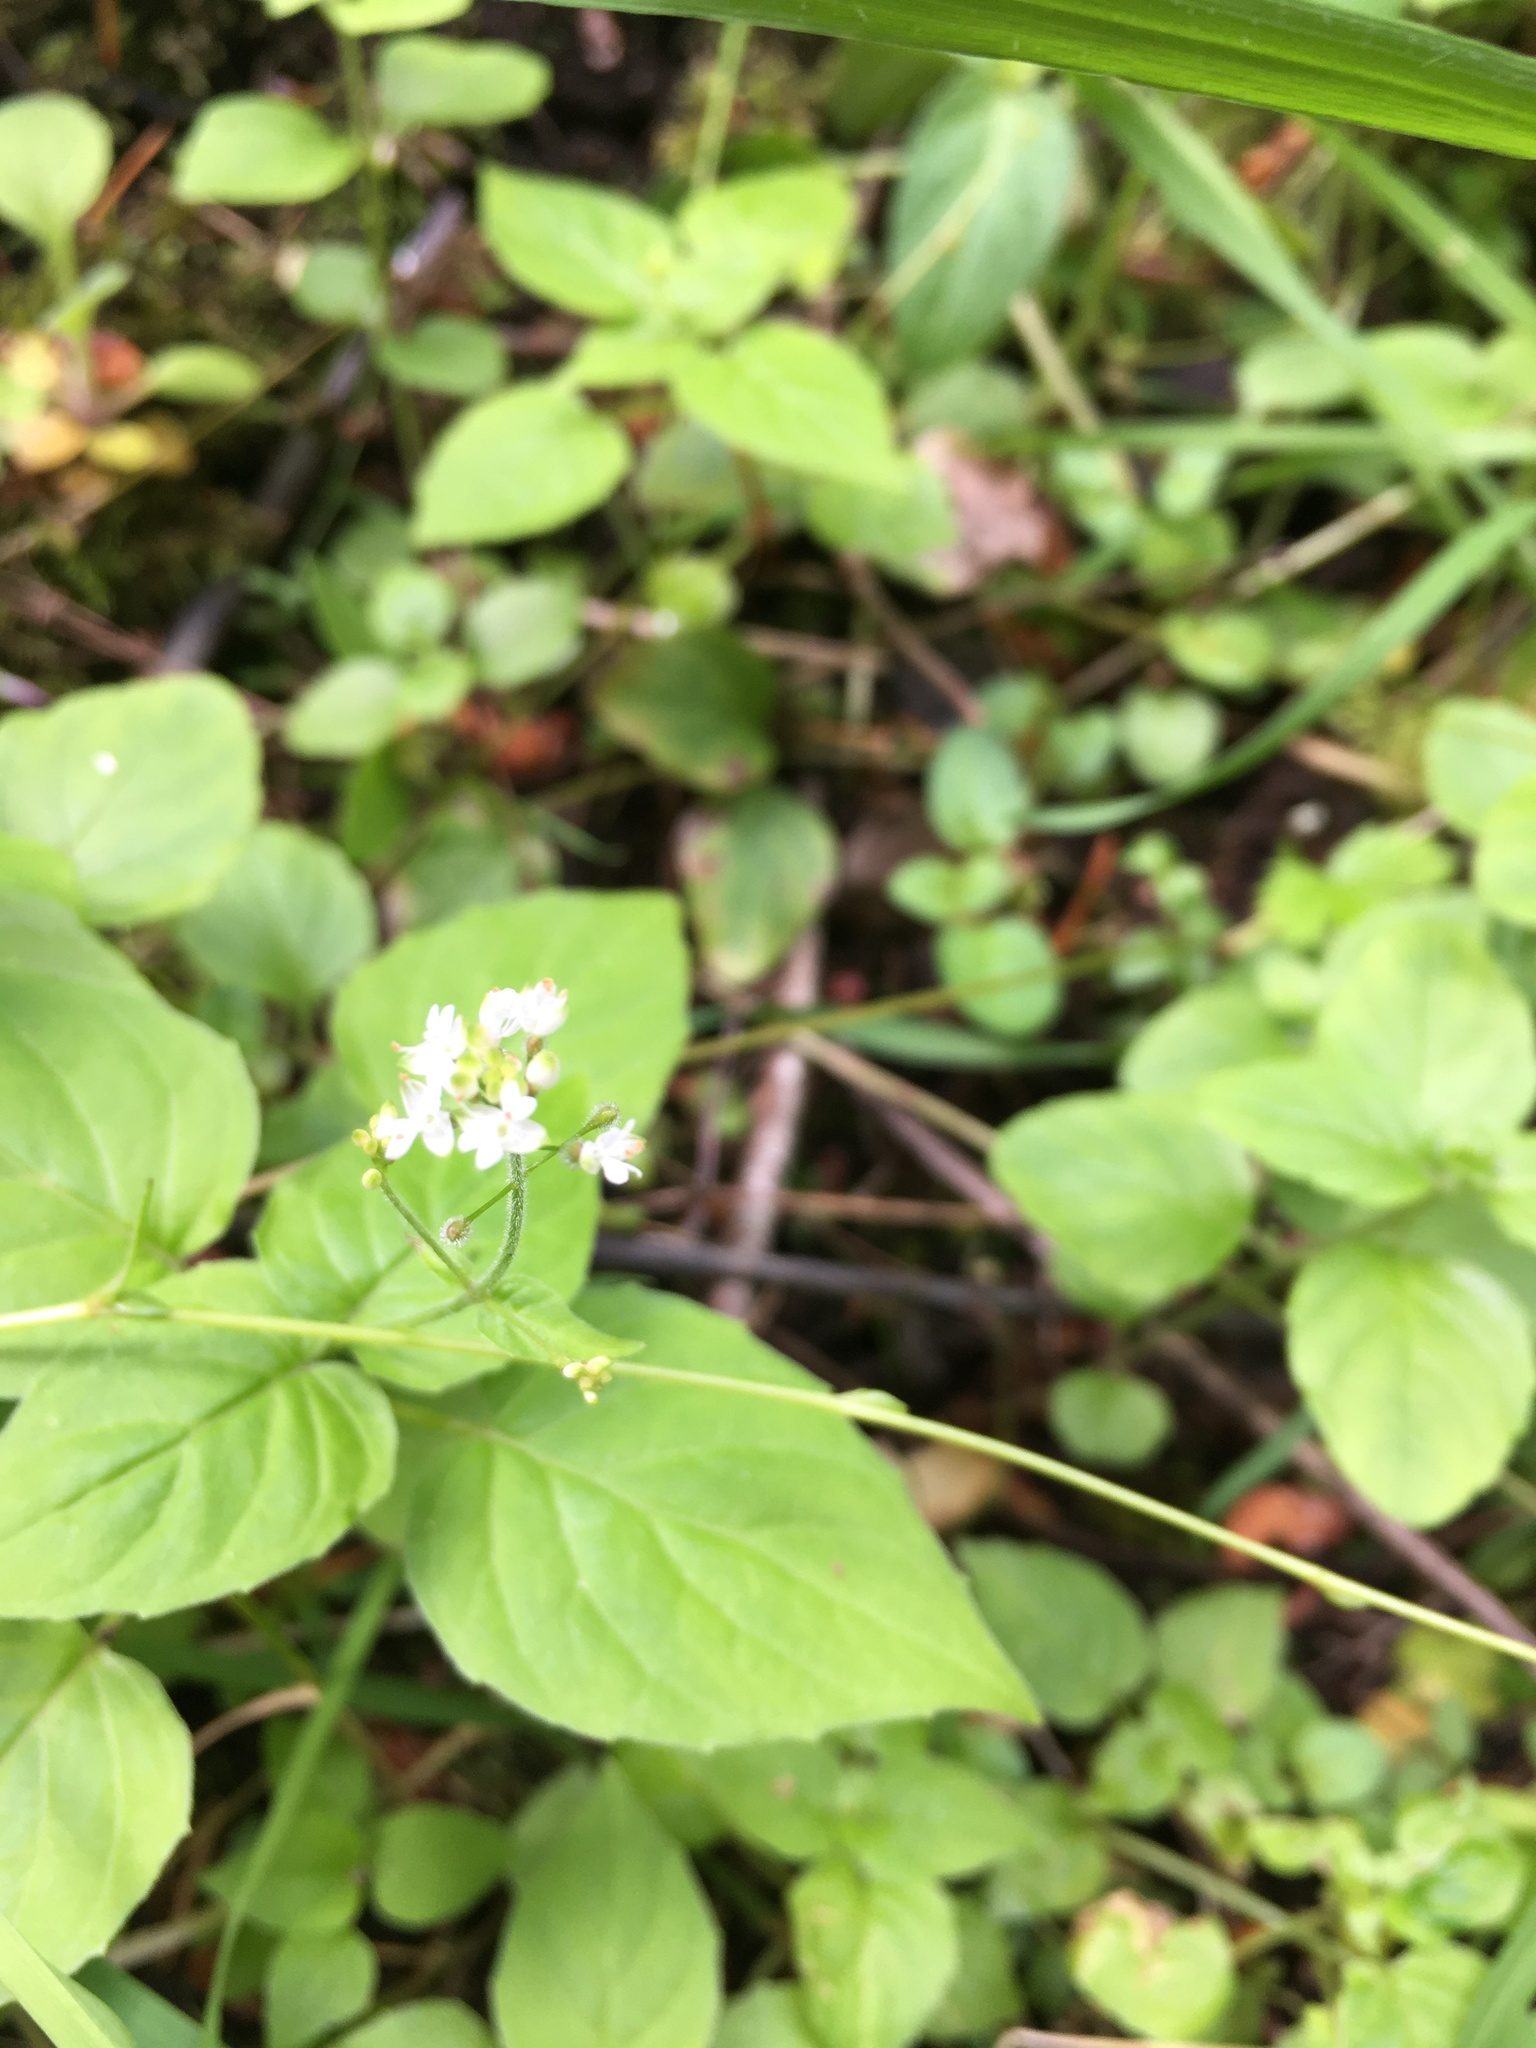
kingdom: Plantae
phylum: Tracheophyta
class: Magnoliopsida
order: Myrtales
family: Onagraceae
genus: Circaea
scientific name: Circaea alpina
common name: Alpine enchanter's-nightshade
